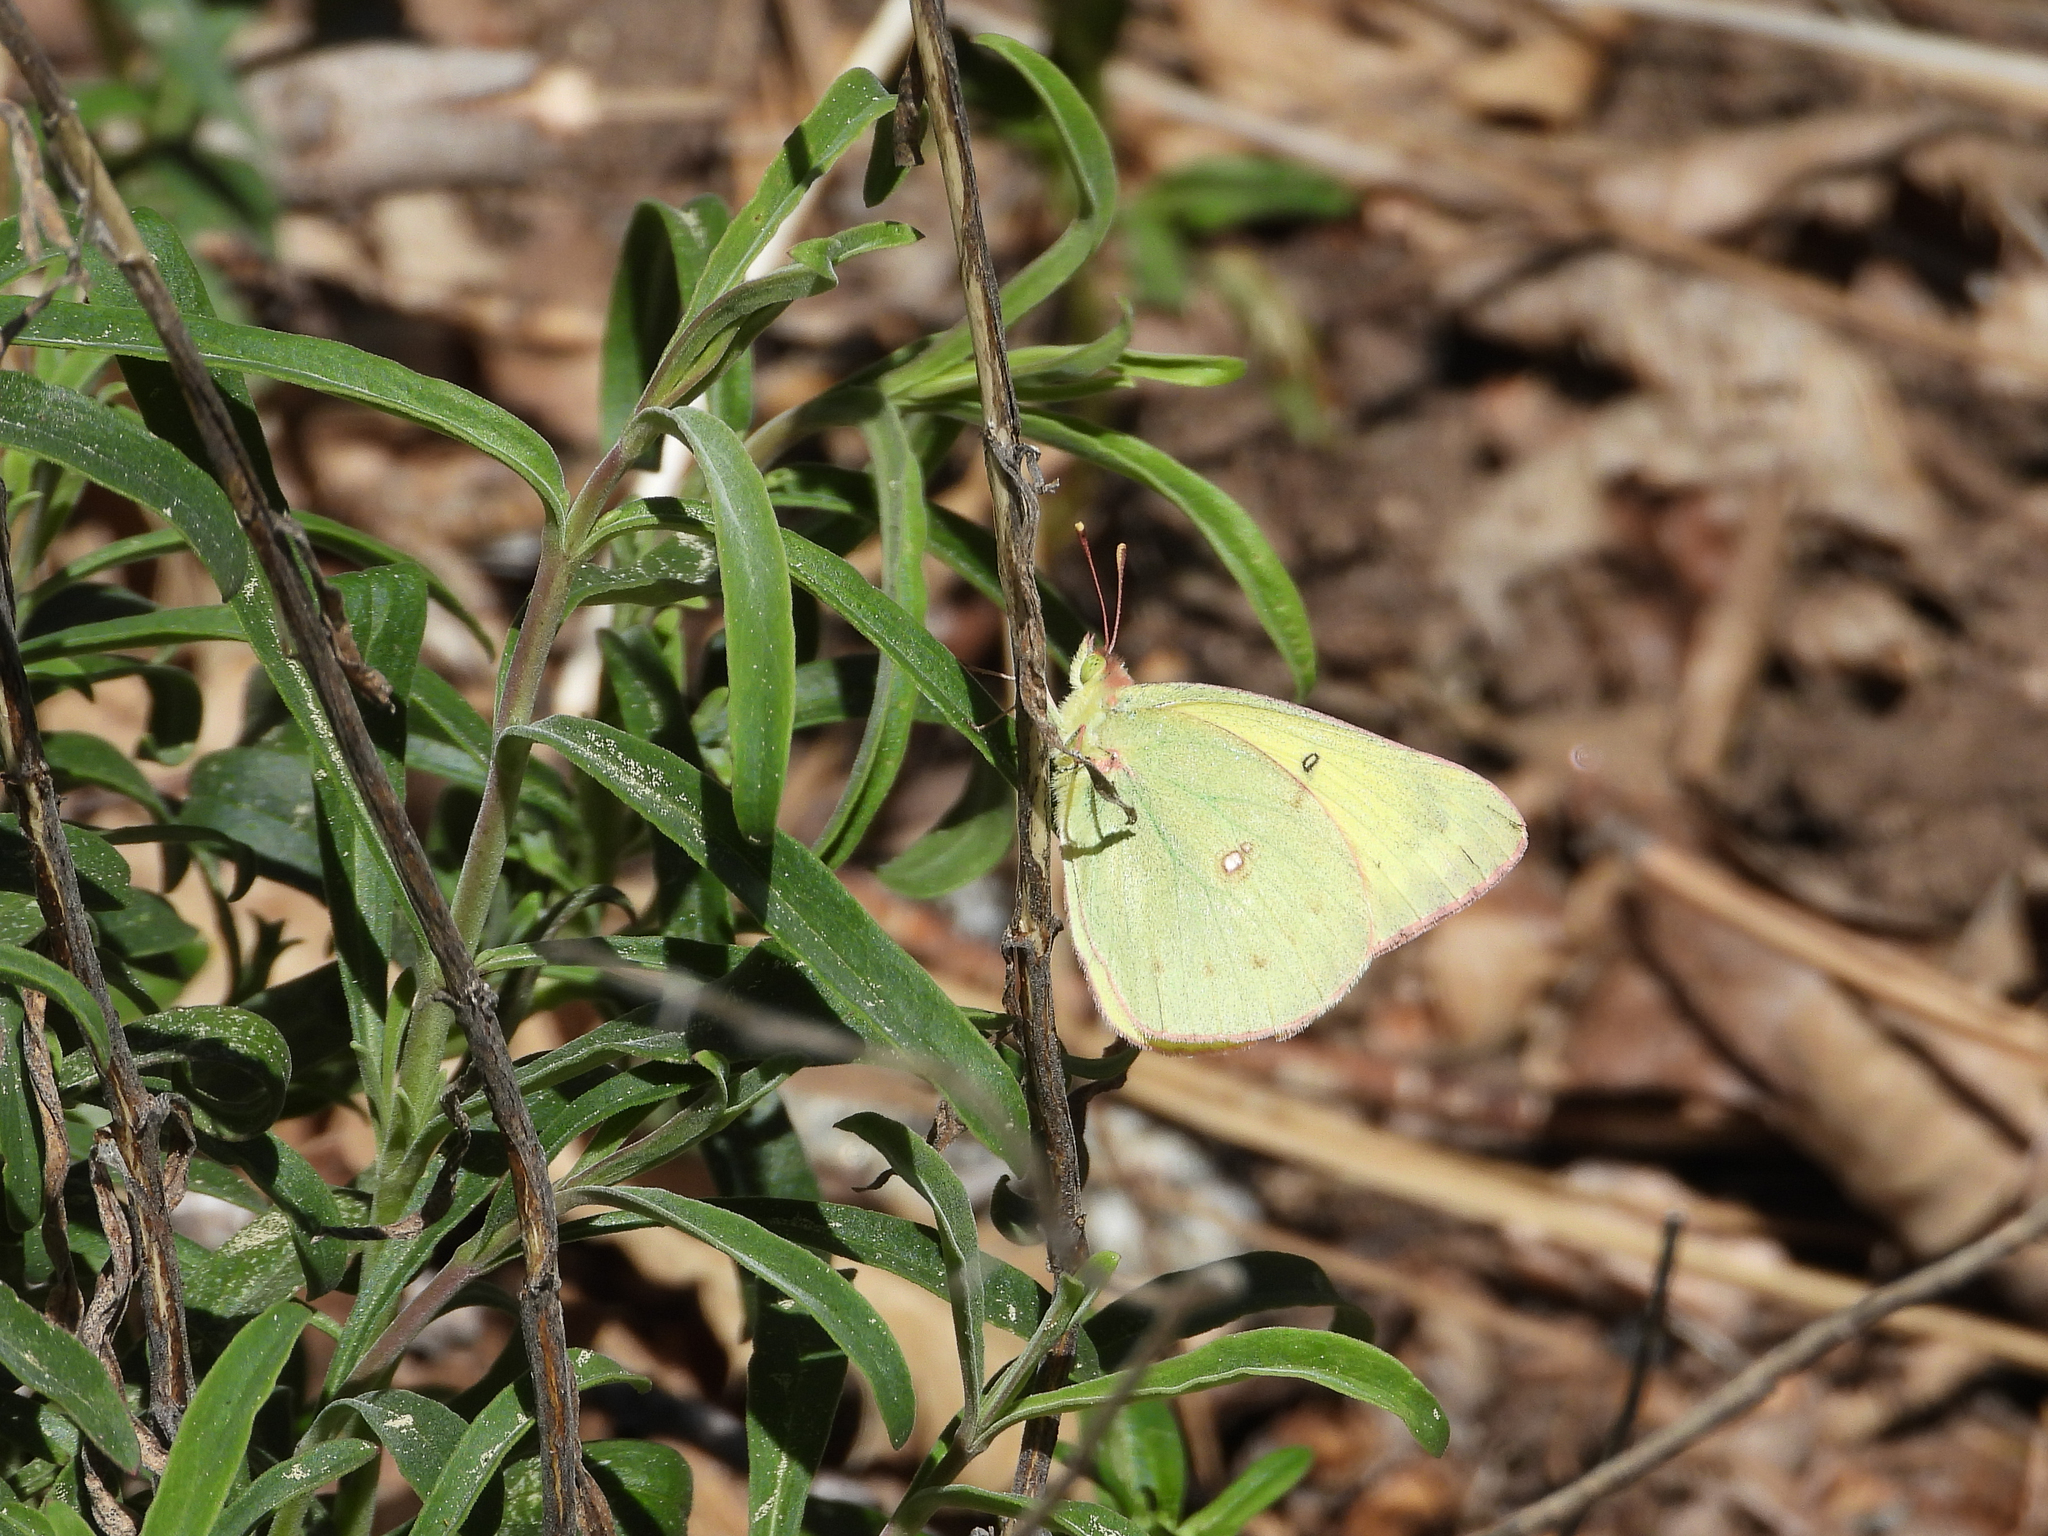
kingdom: Animalia
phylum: Arthropoda
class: Insecta
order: Lepidoptera
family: Pieridae
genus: Colias
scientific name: Colias eurytheme
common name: Alfalfa butterfly
